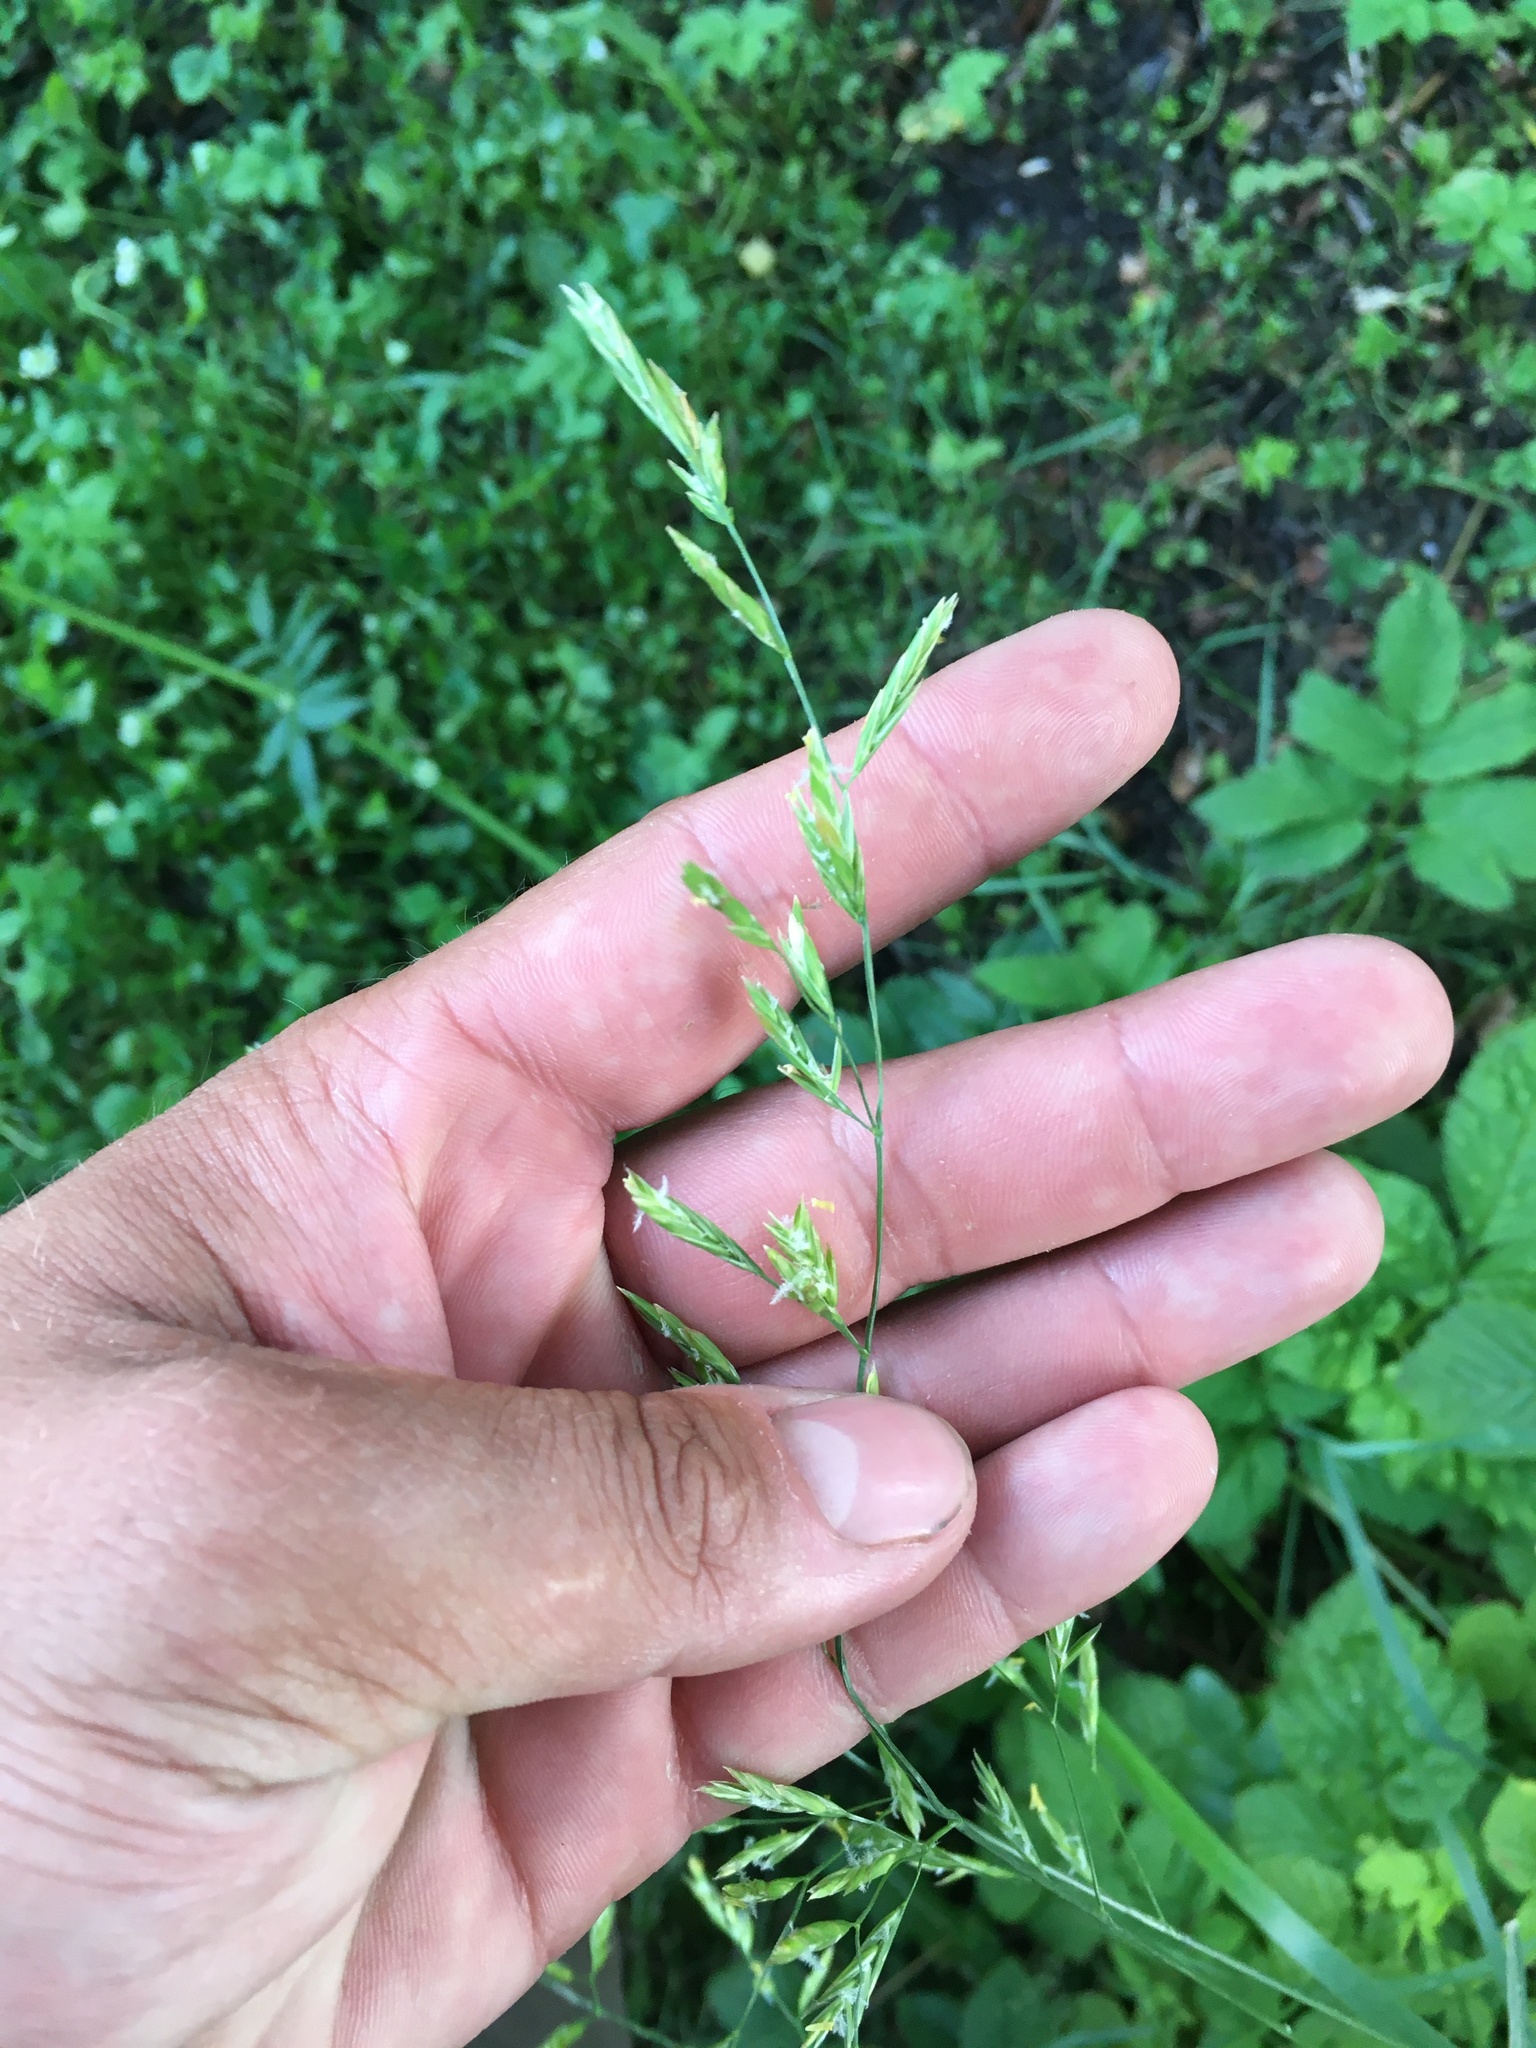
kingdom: Plantae
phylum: Tracheophyta
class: Liliopsida
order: Poales
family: Poaceae
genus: Lolium
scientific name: Lolium pratense
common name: Dover grass
